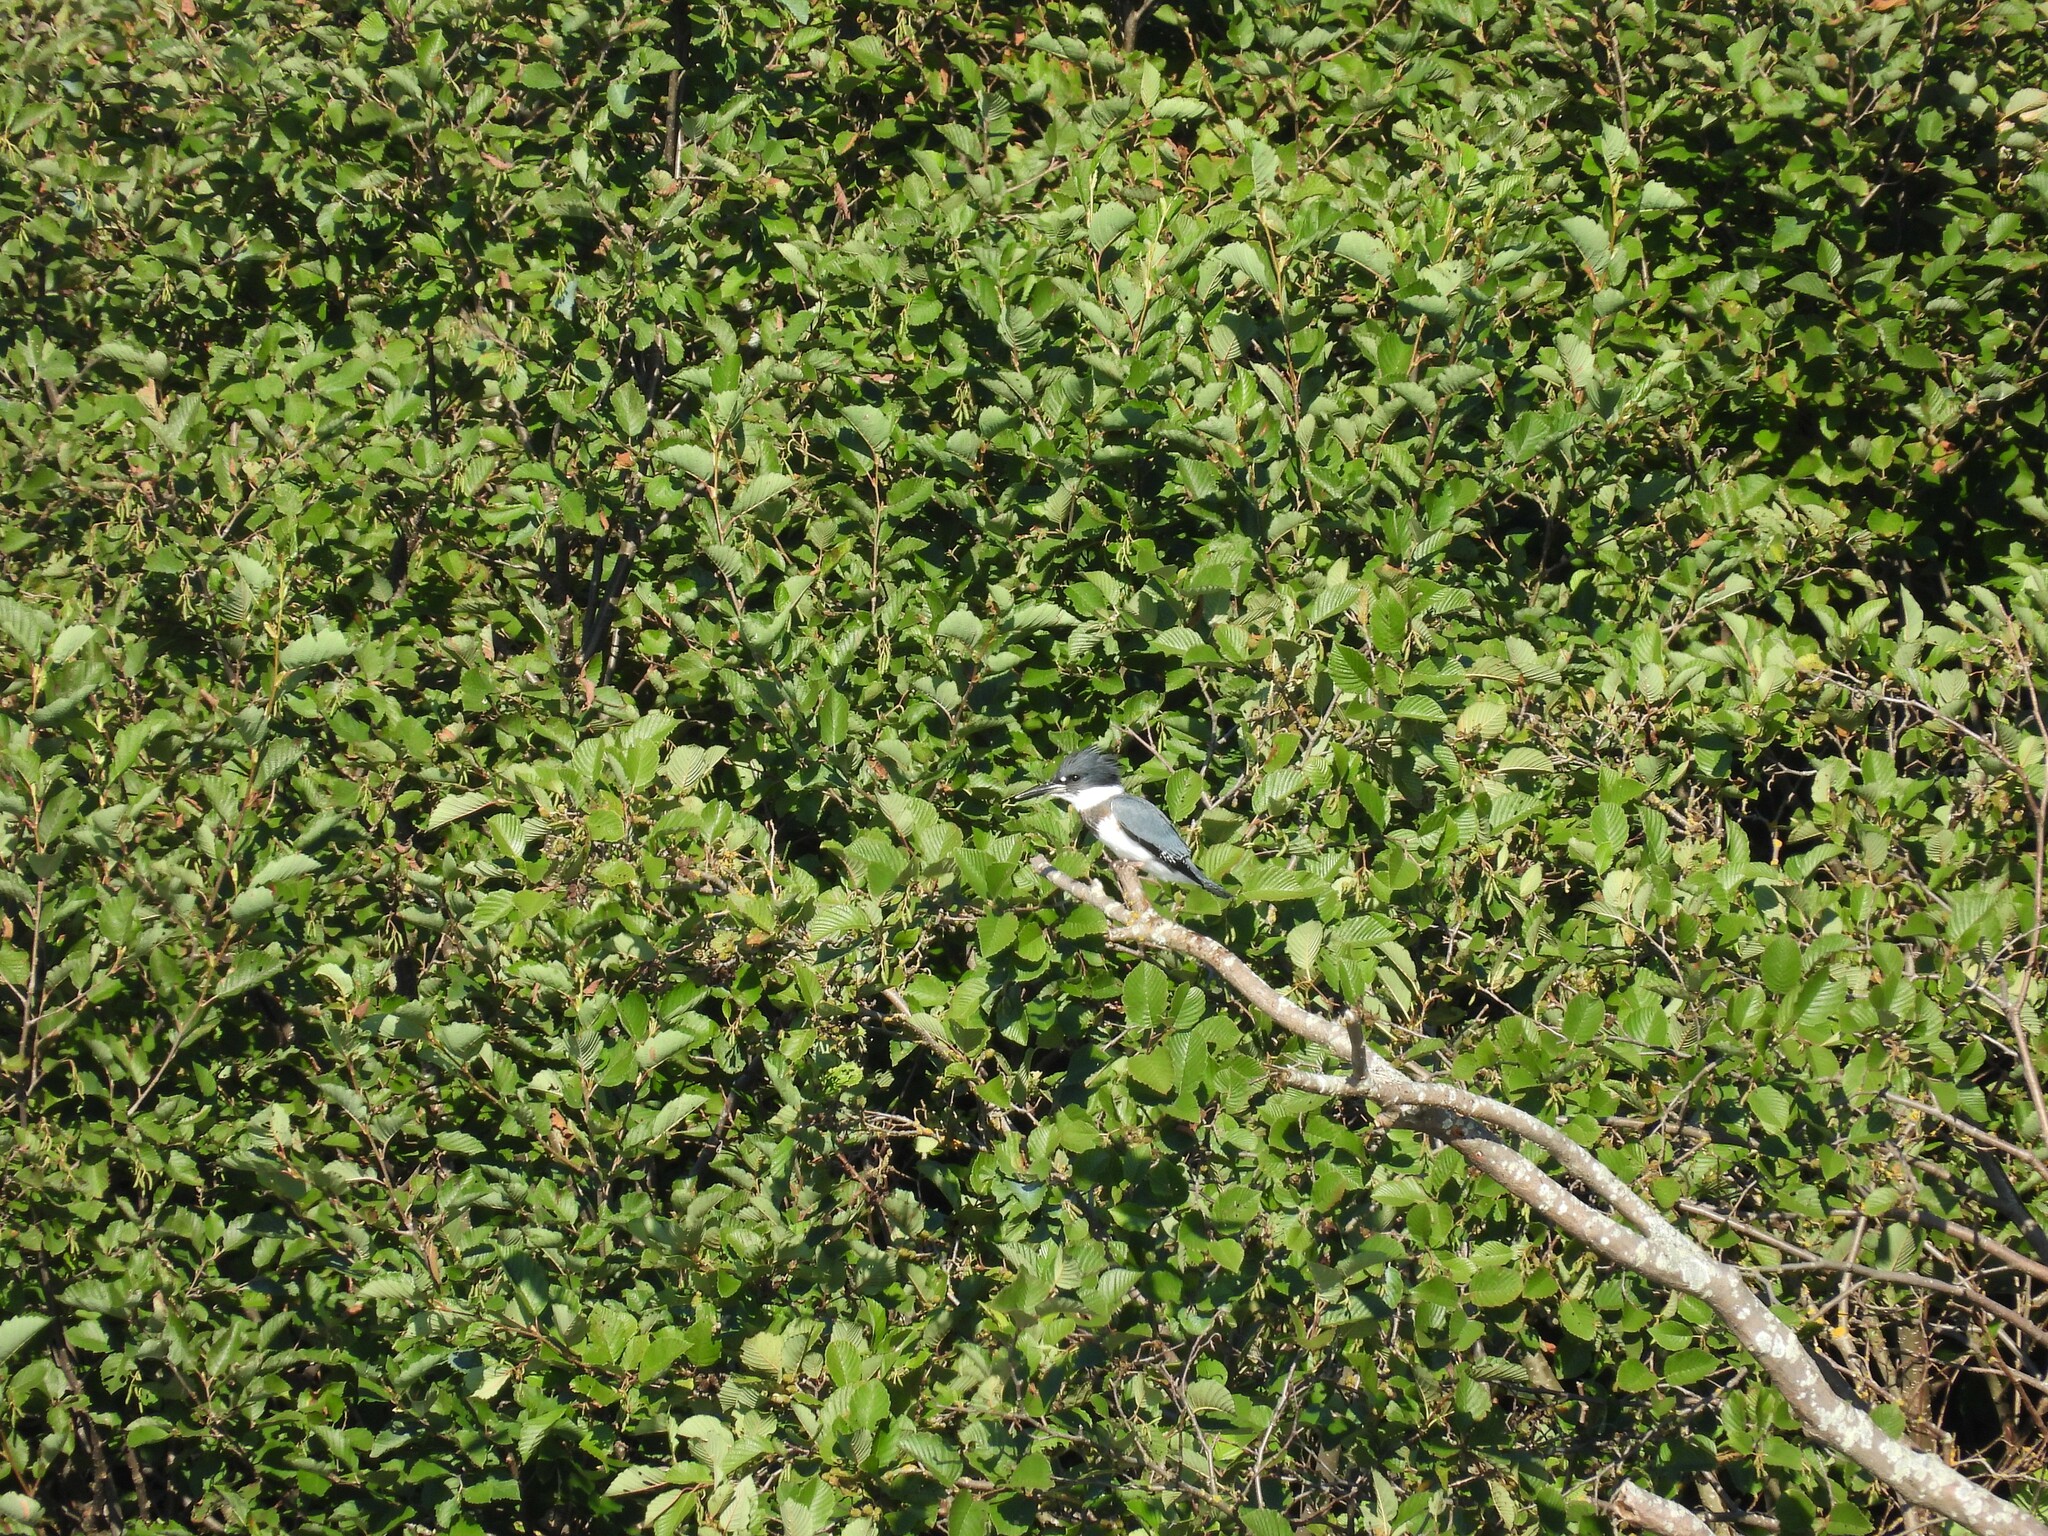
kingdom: Animalia
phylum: Chordata
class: Aves
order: Coraciiformes
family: Alcedinidae
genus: Megaceryle
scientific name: Megaceryle alcyon
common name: Belted kingfisher
